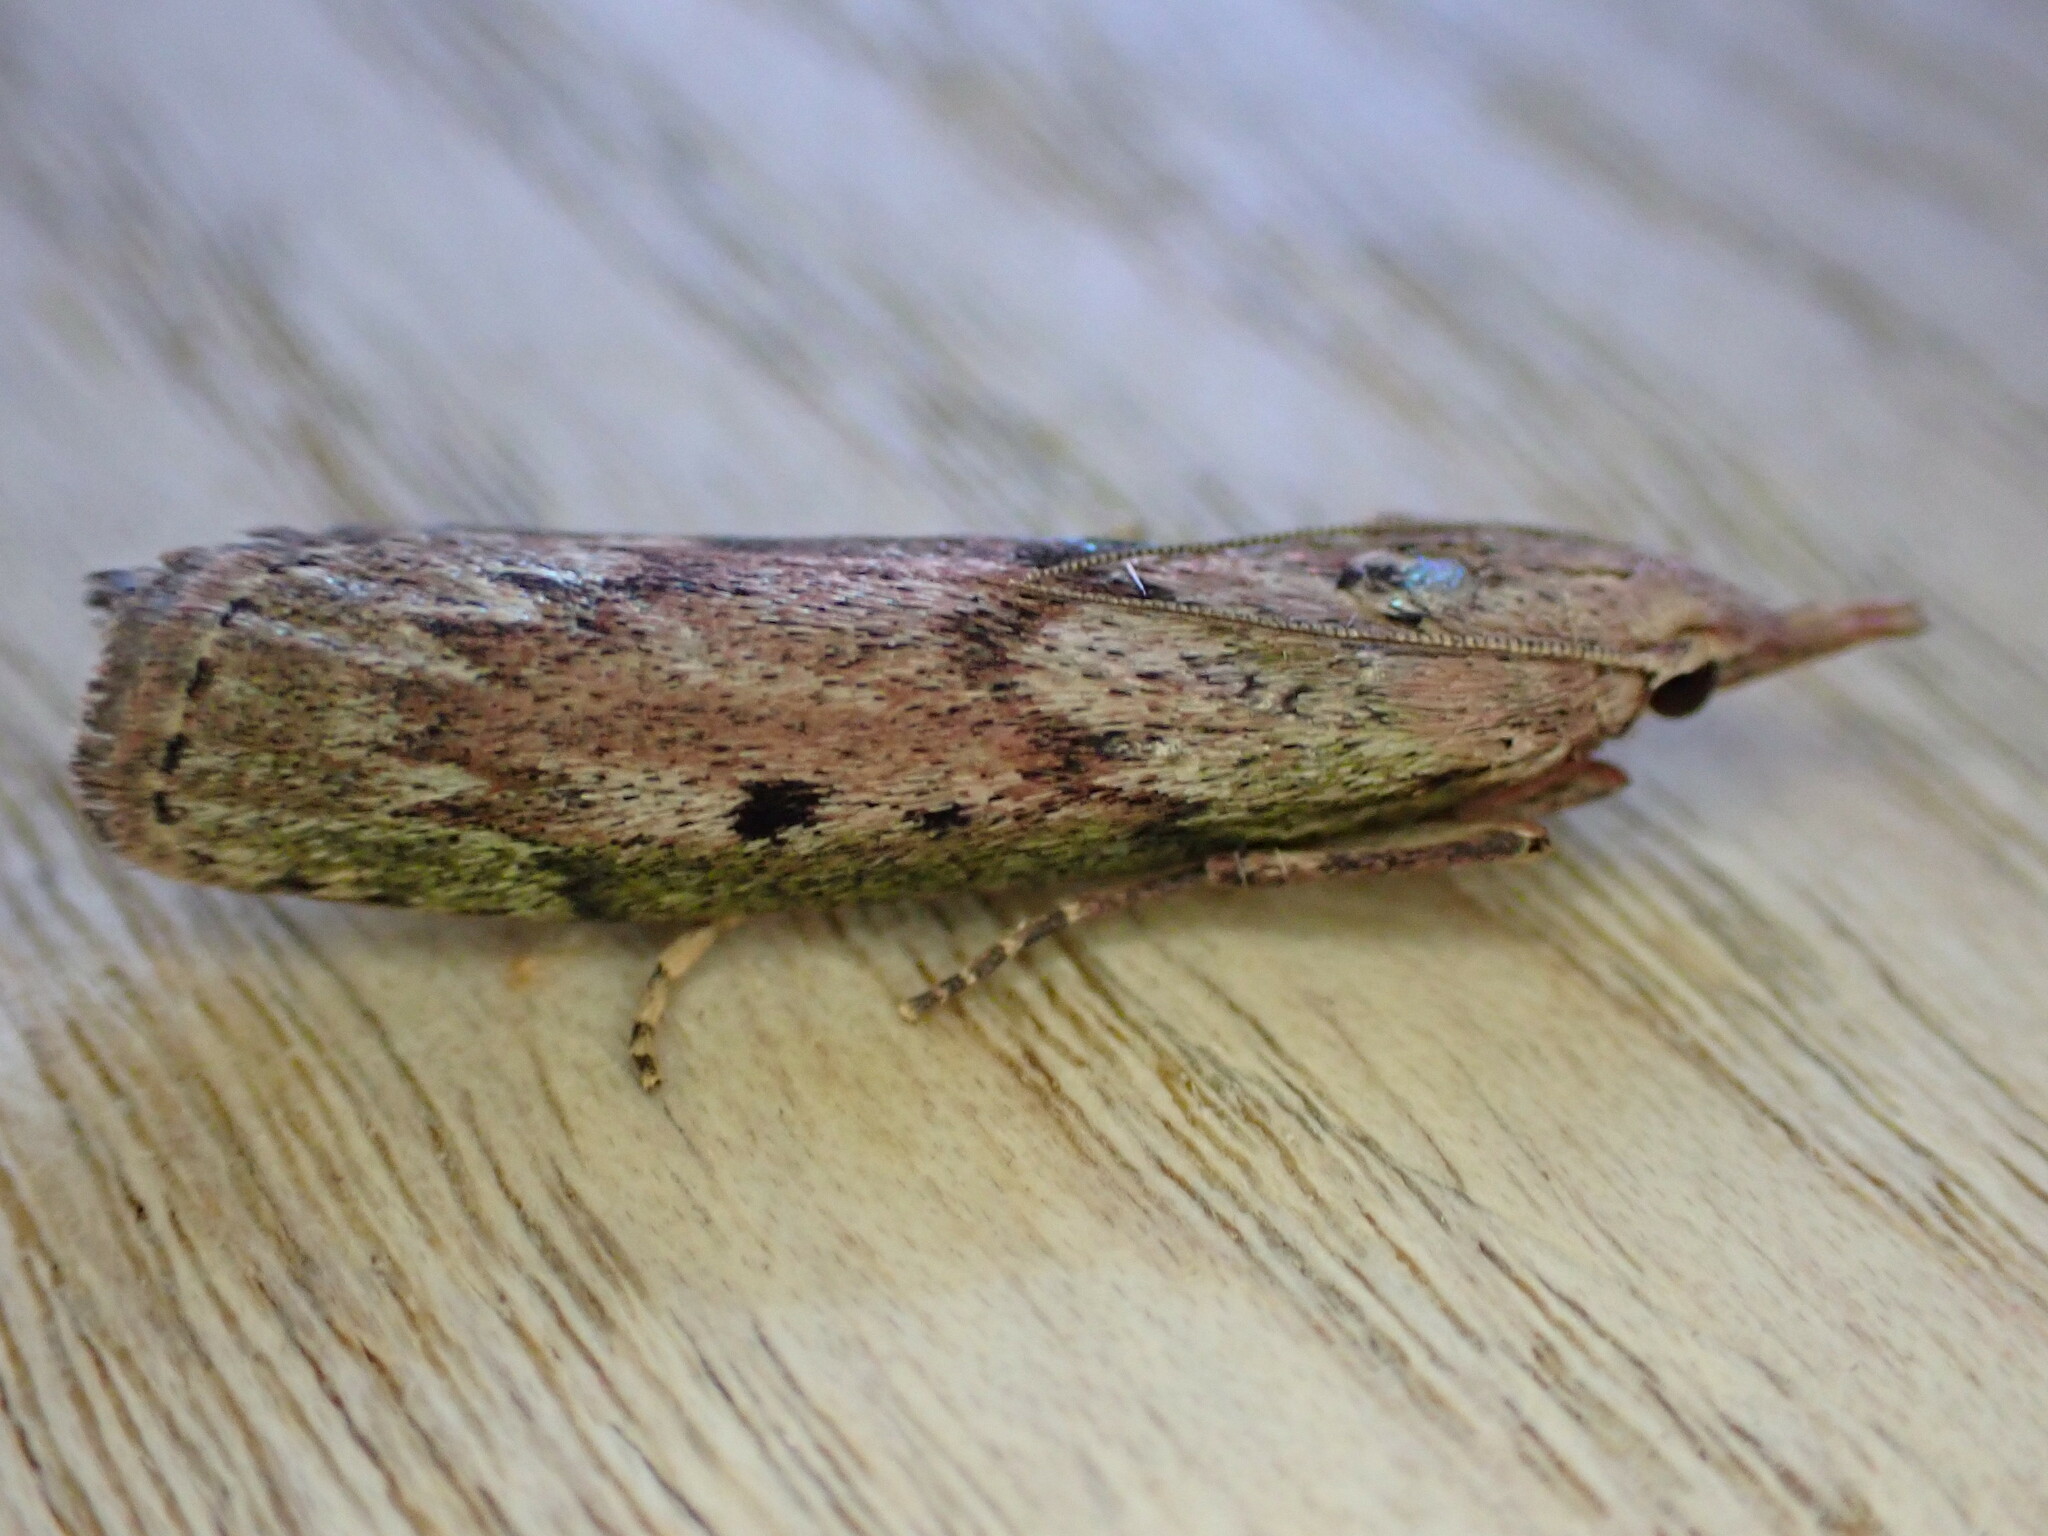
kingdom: Animalia
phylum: Arthropoda
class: Insecta
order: Lepidoptera
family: Pyralidae
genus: Aphomia
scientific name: Aphomia sociella
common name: Bee moth
